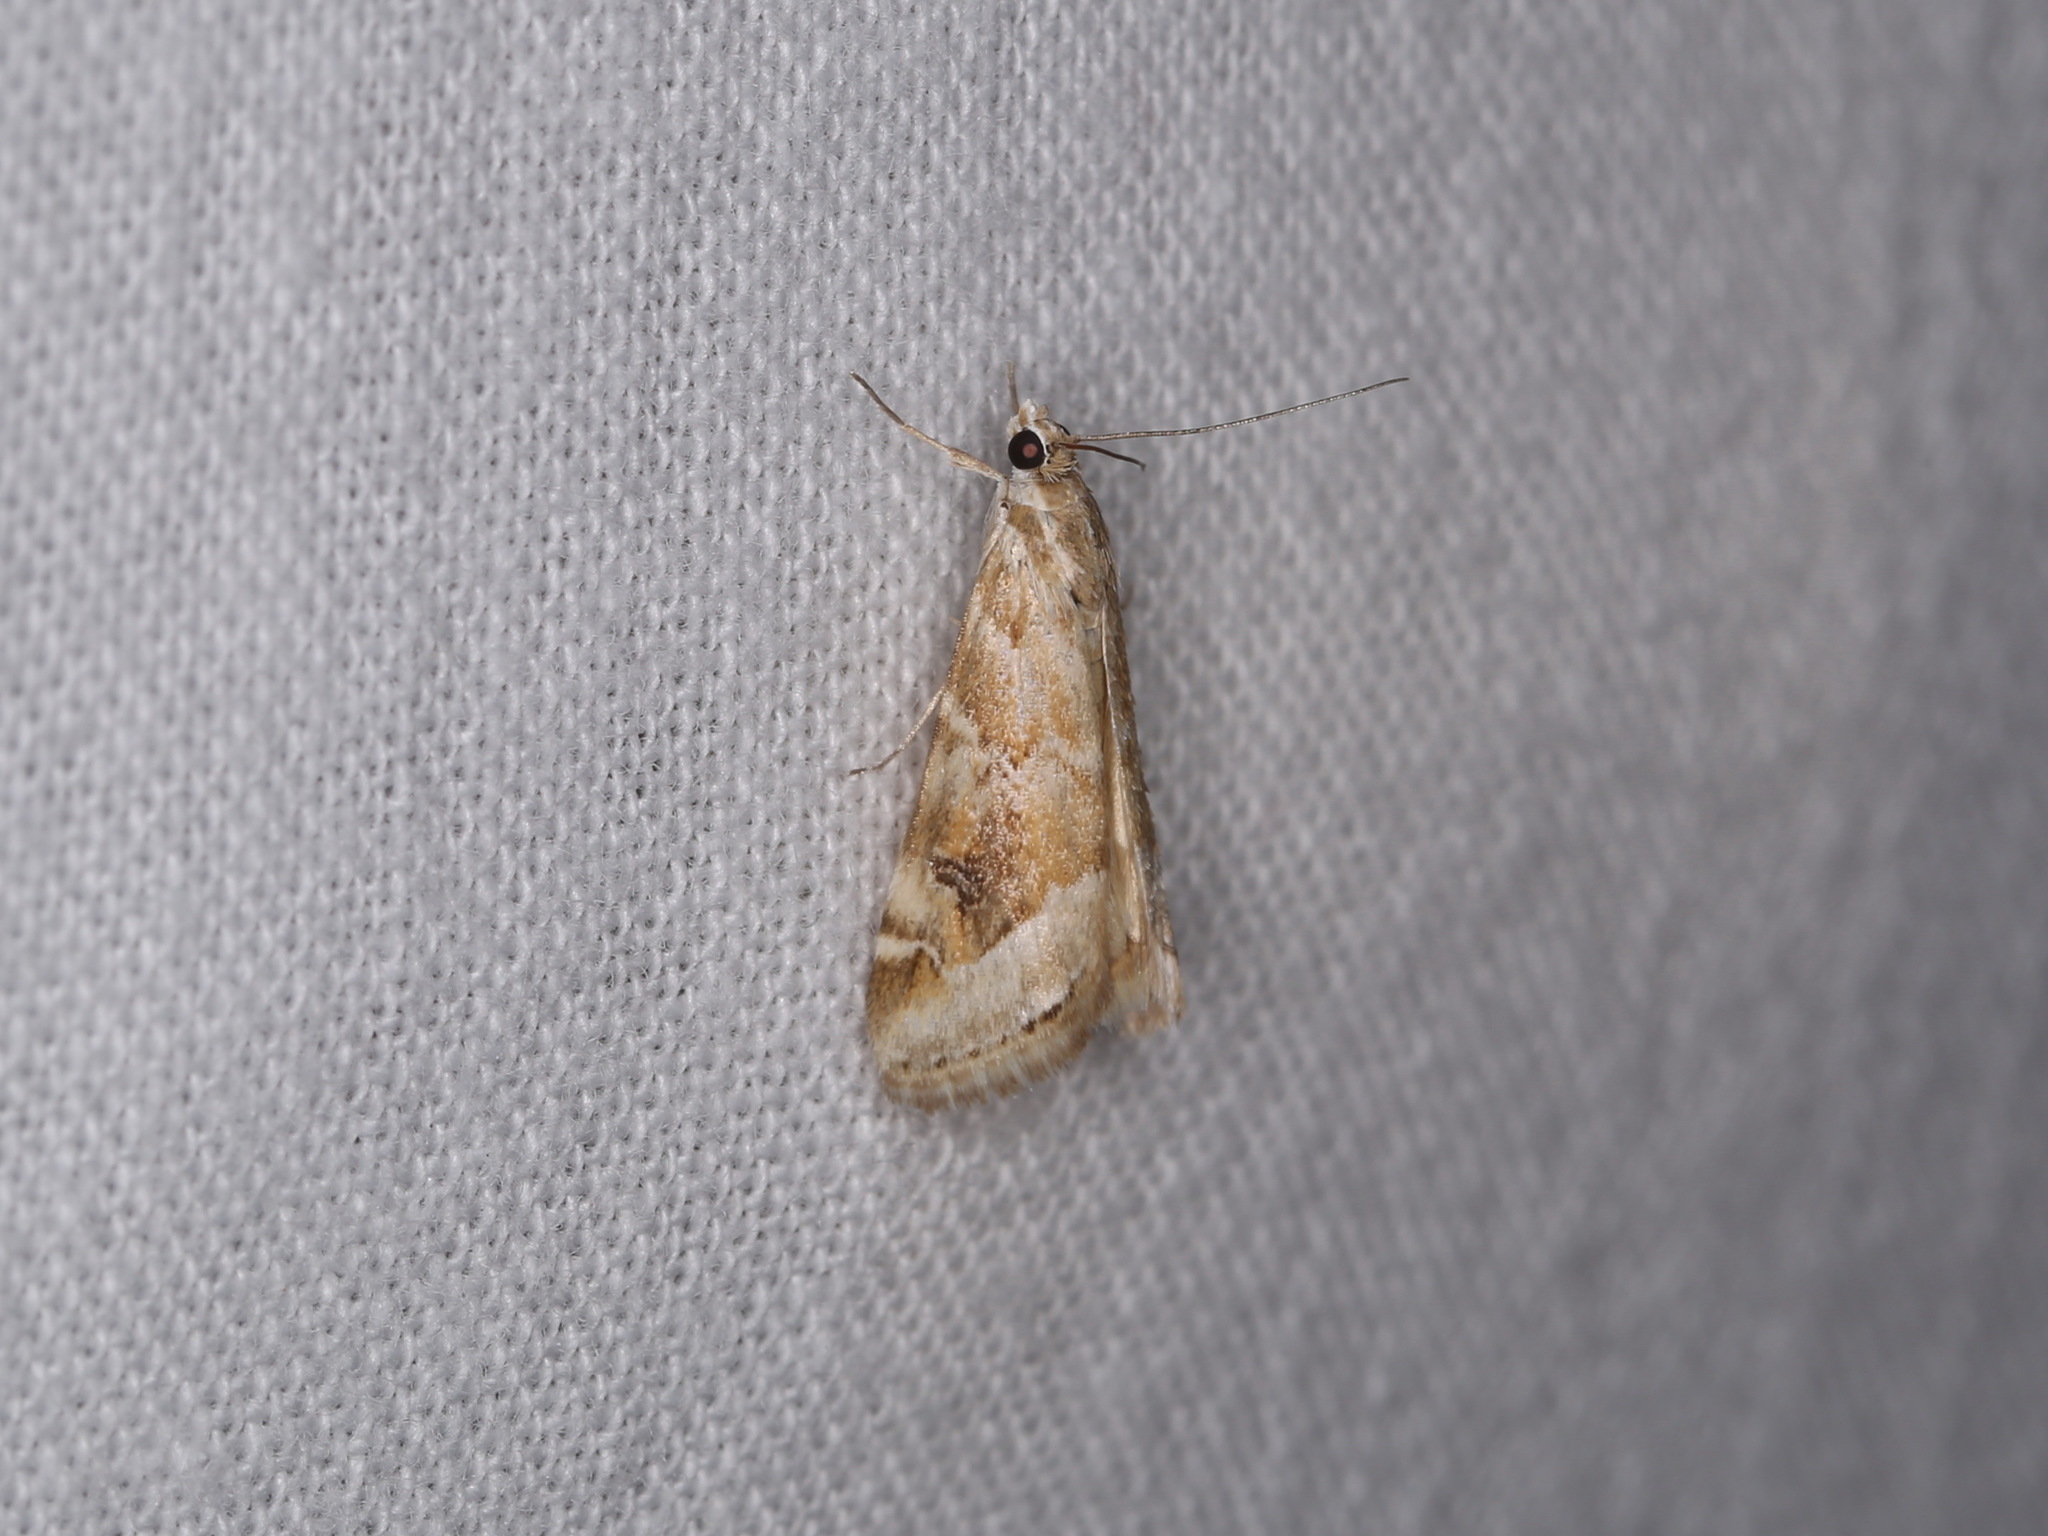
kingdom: Animalia
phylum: Arthropoda
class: Insecta
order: Lepidoptera
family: Crambidae
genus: Hellula
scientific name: Hellula hydralis
